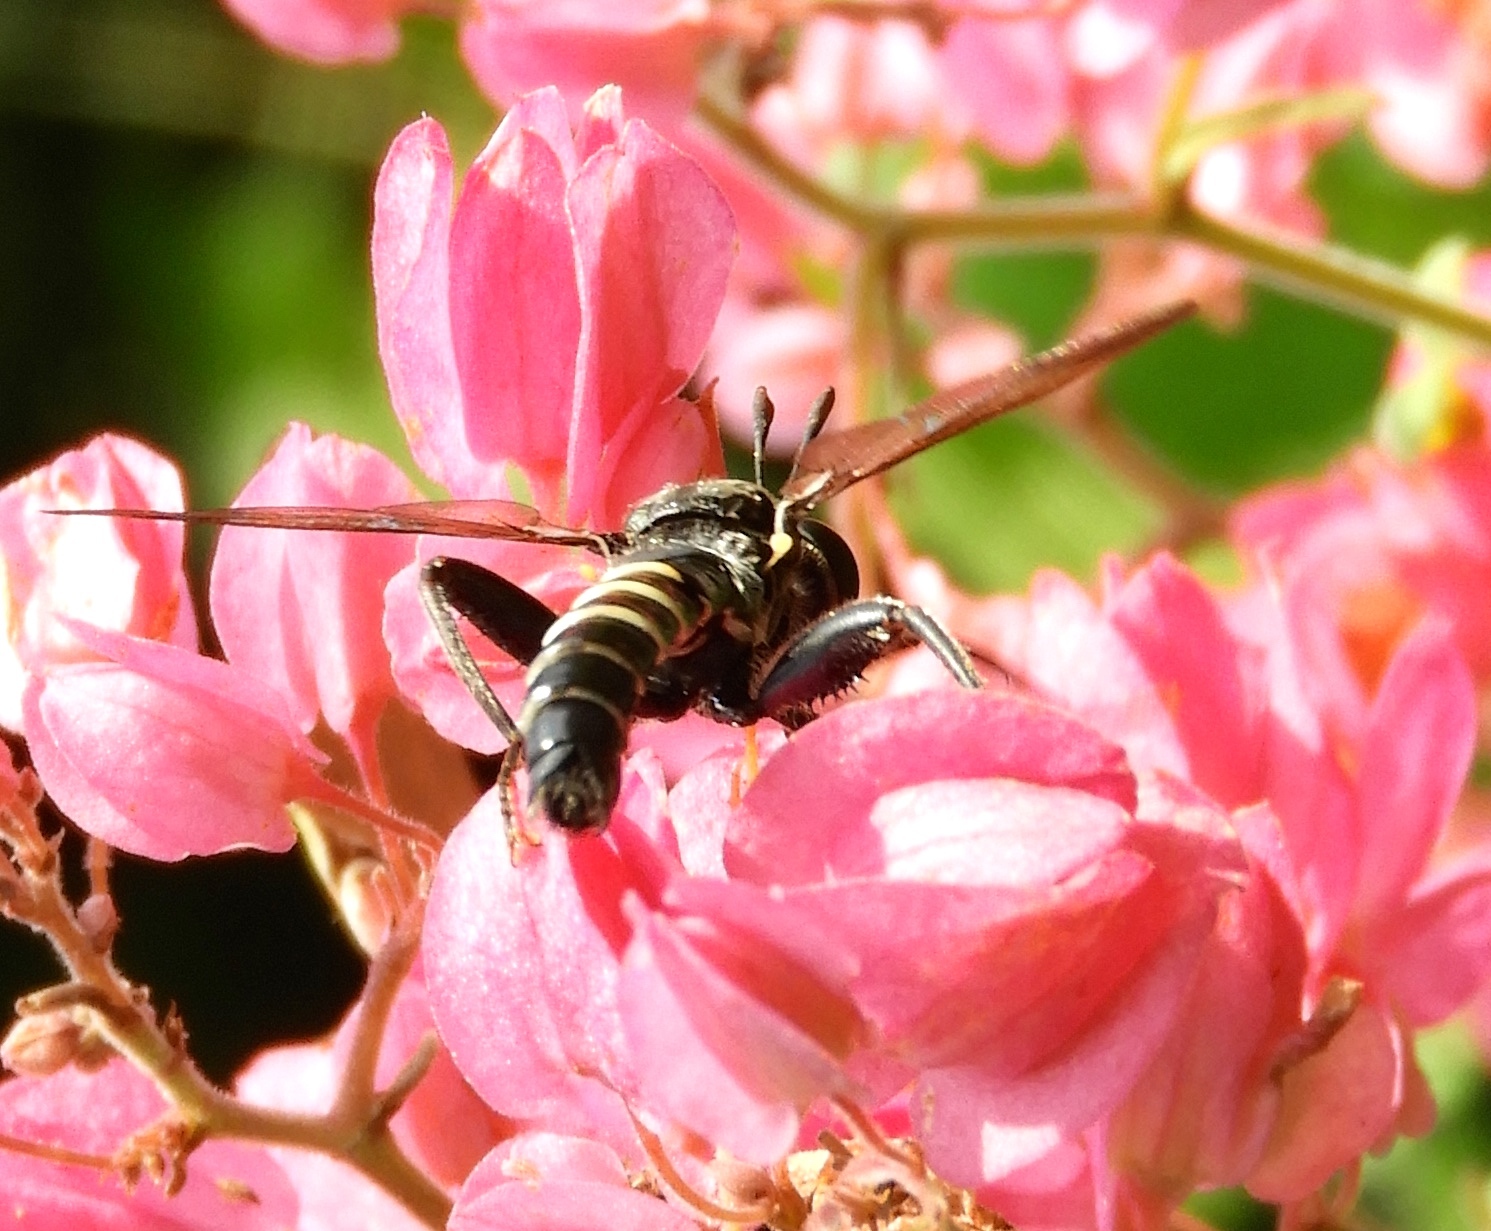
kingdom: Animalia
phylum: Arthropoda
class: Insecta
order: Diptera
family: Mydidae
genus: Mydas
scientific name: Mydas
